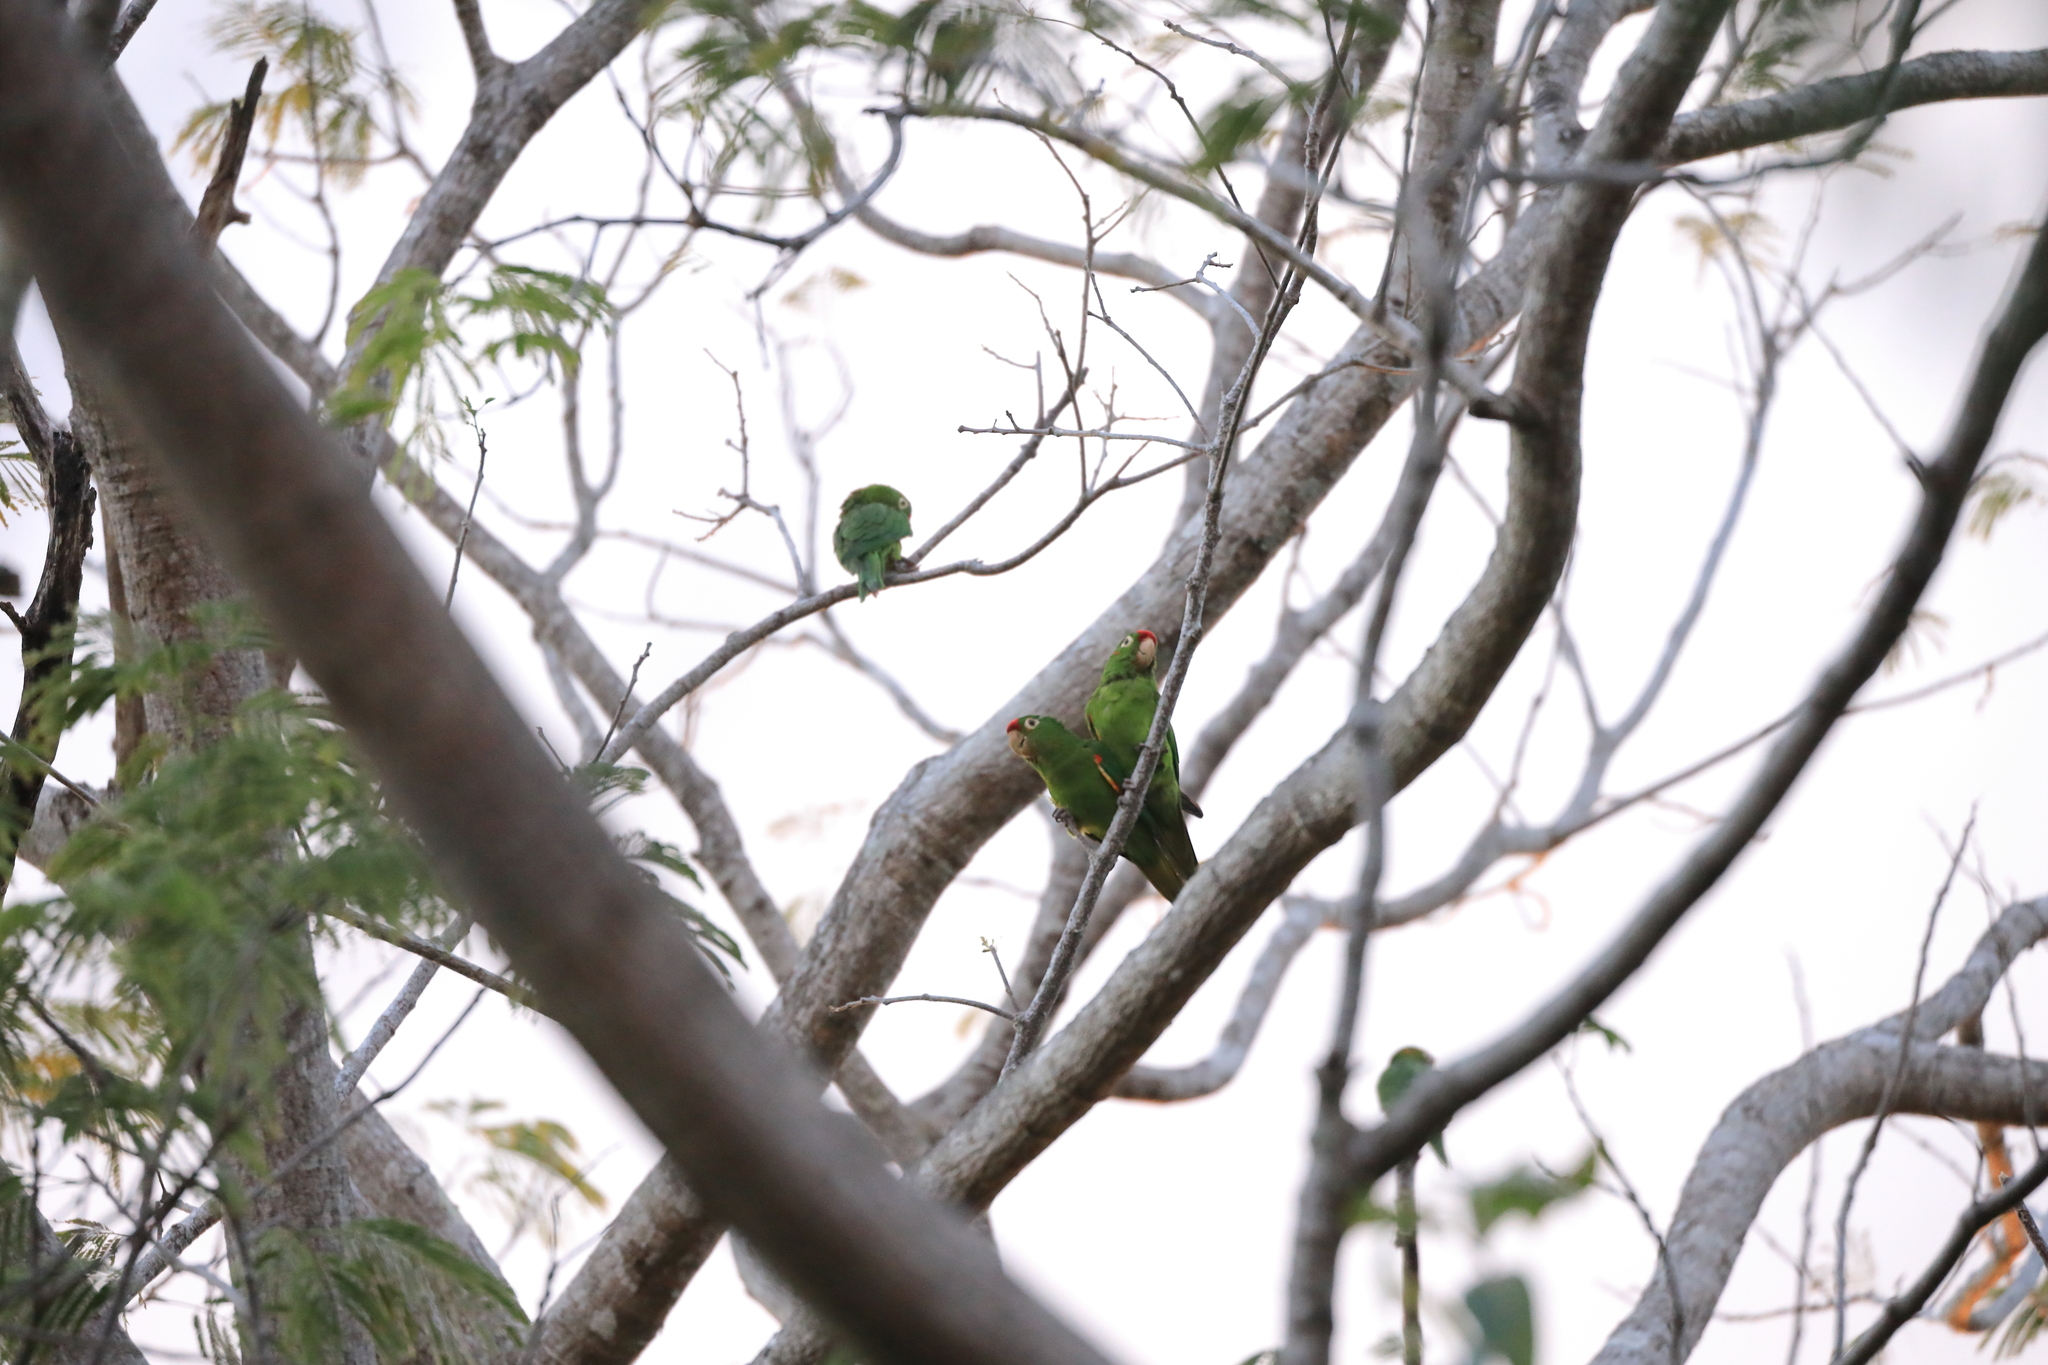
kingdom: Animalia
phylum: Chordata
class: Aves
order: Psittaciformes
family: Psittacidae
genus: Aratinga
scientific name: Aratinga finschi
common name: Crimson-fronted parakeet
